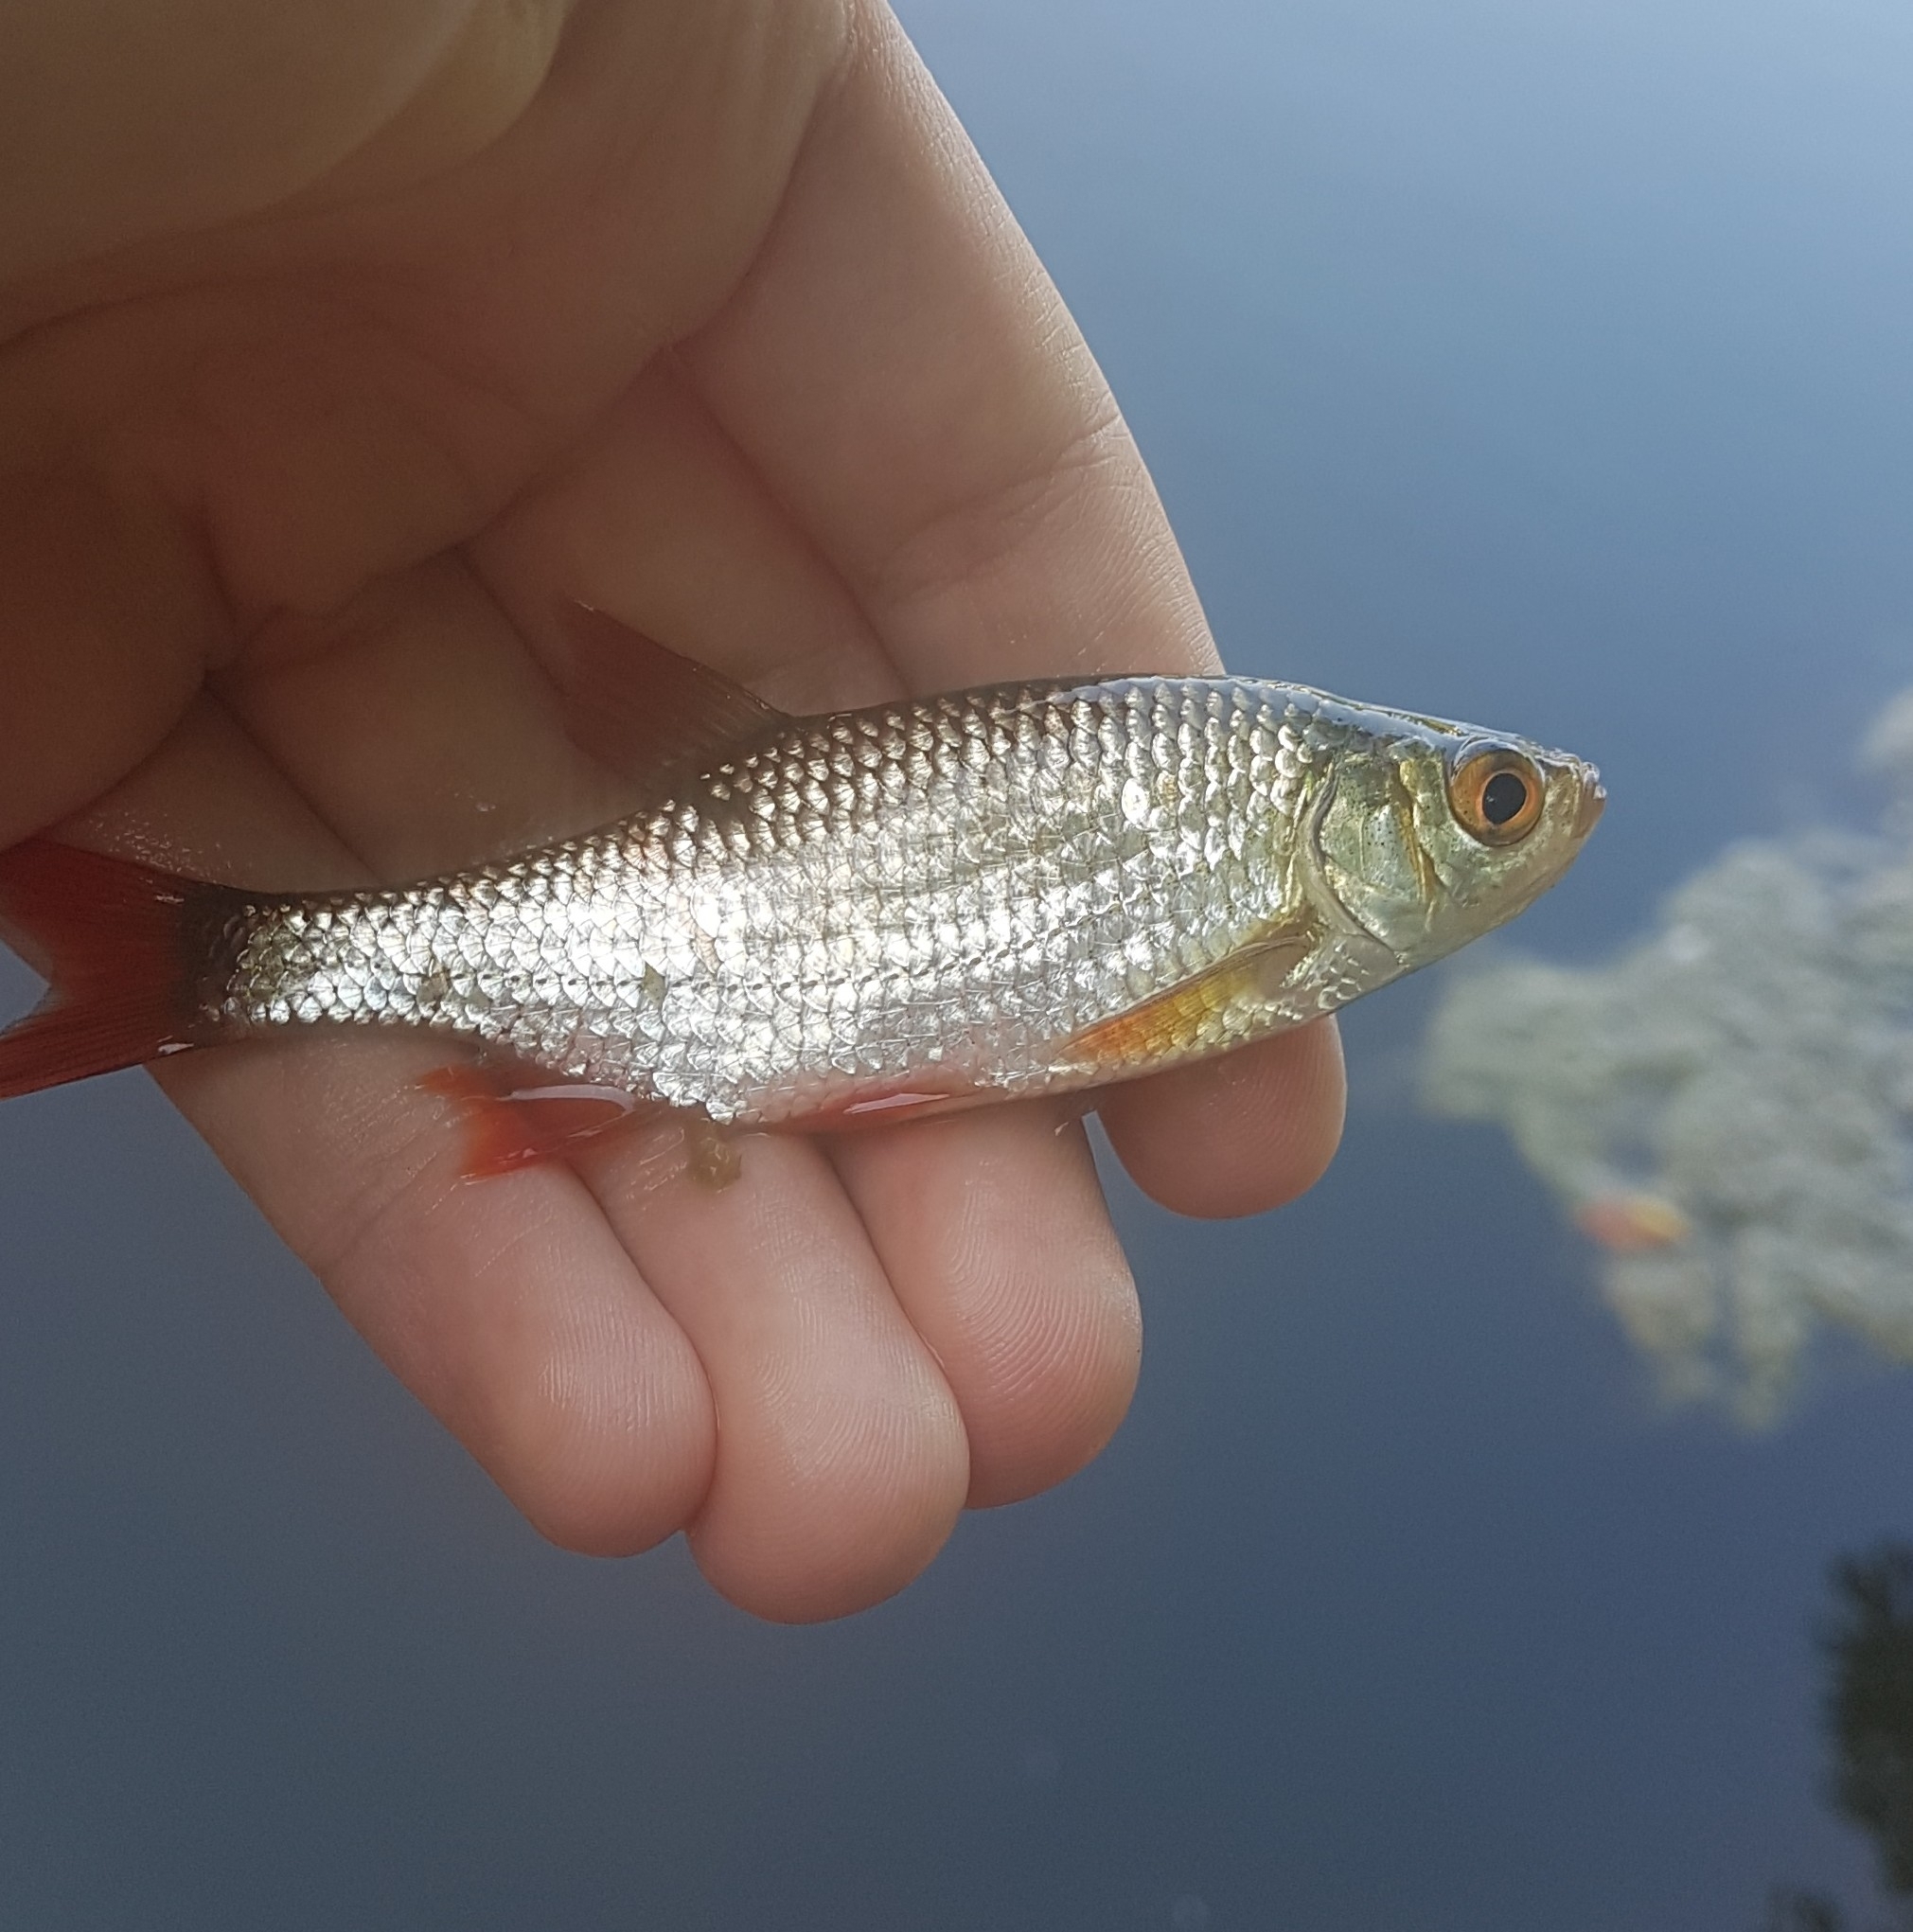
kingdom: Animalia
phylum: Chordata
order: Cypriniformes
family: Cyprinidae
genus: Scardinius
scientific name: Scardinius erythrophthalmus
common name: Rudd
